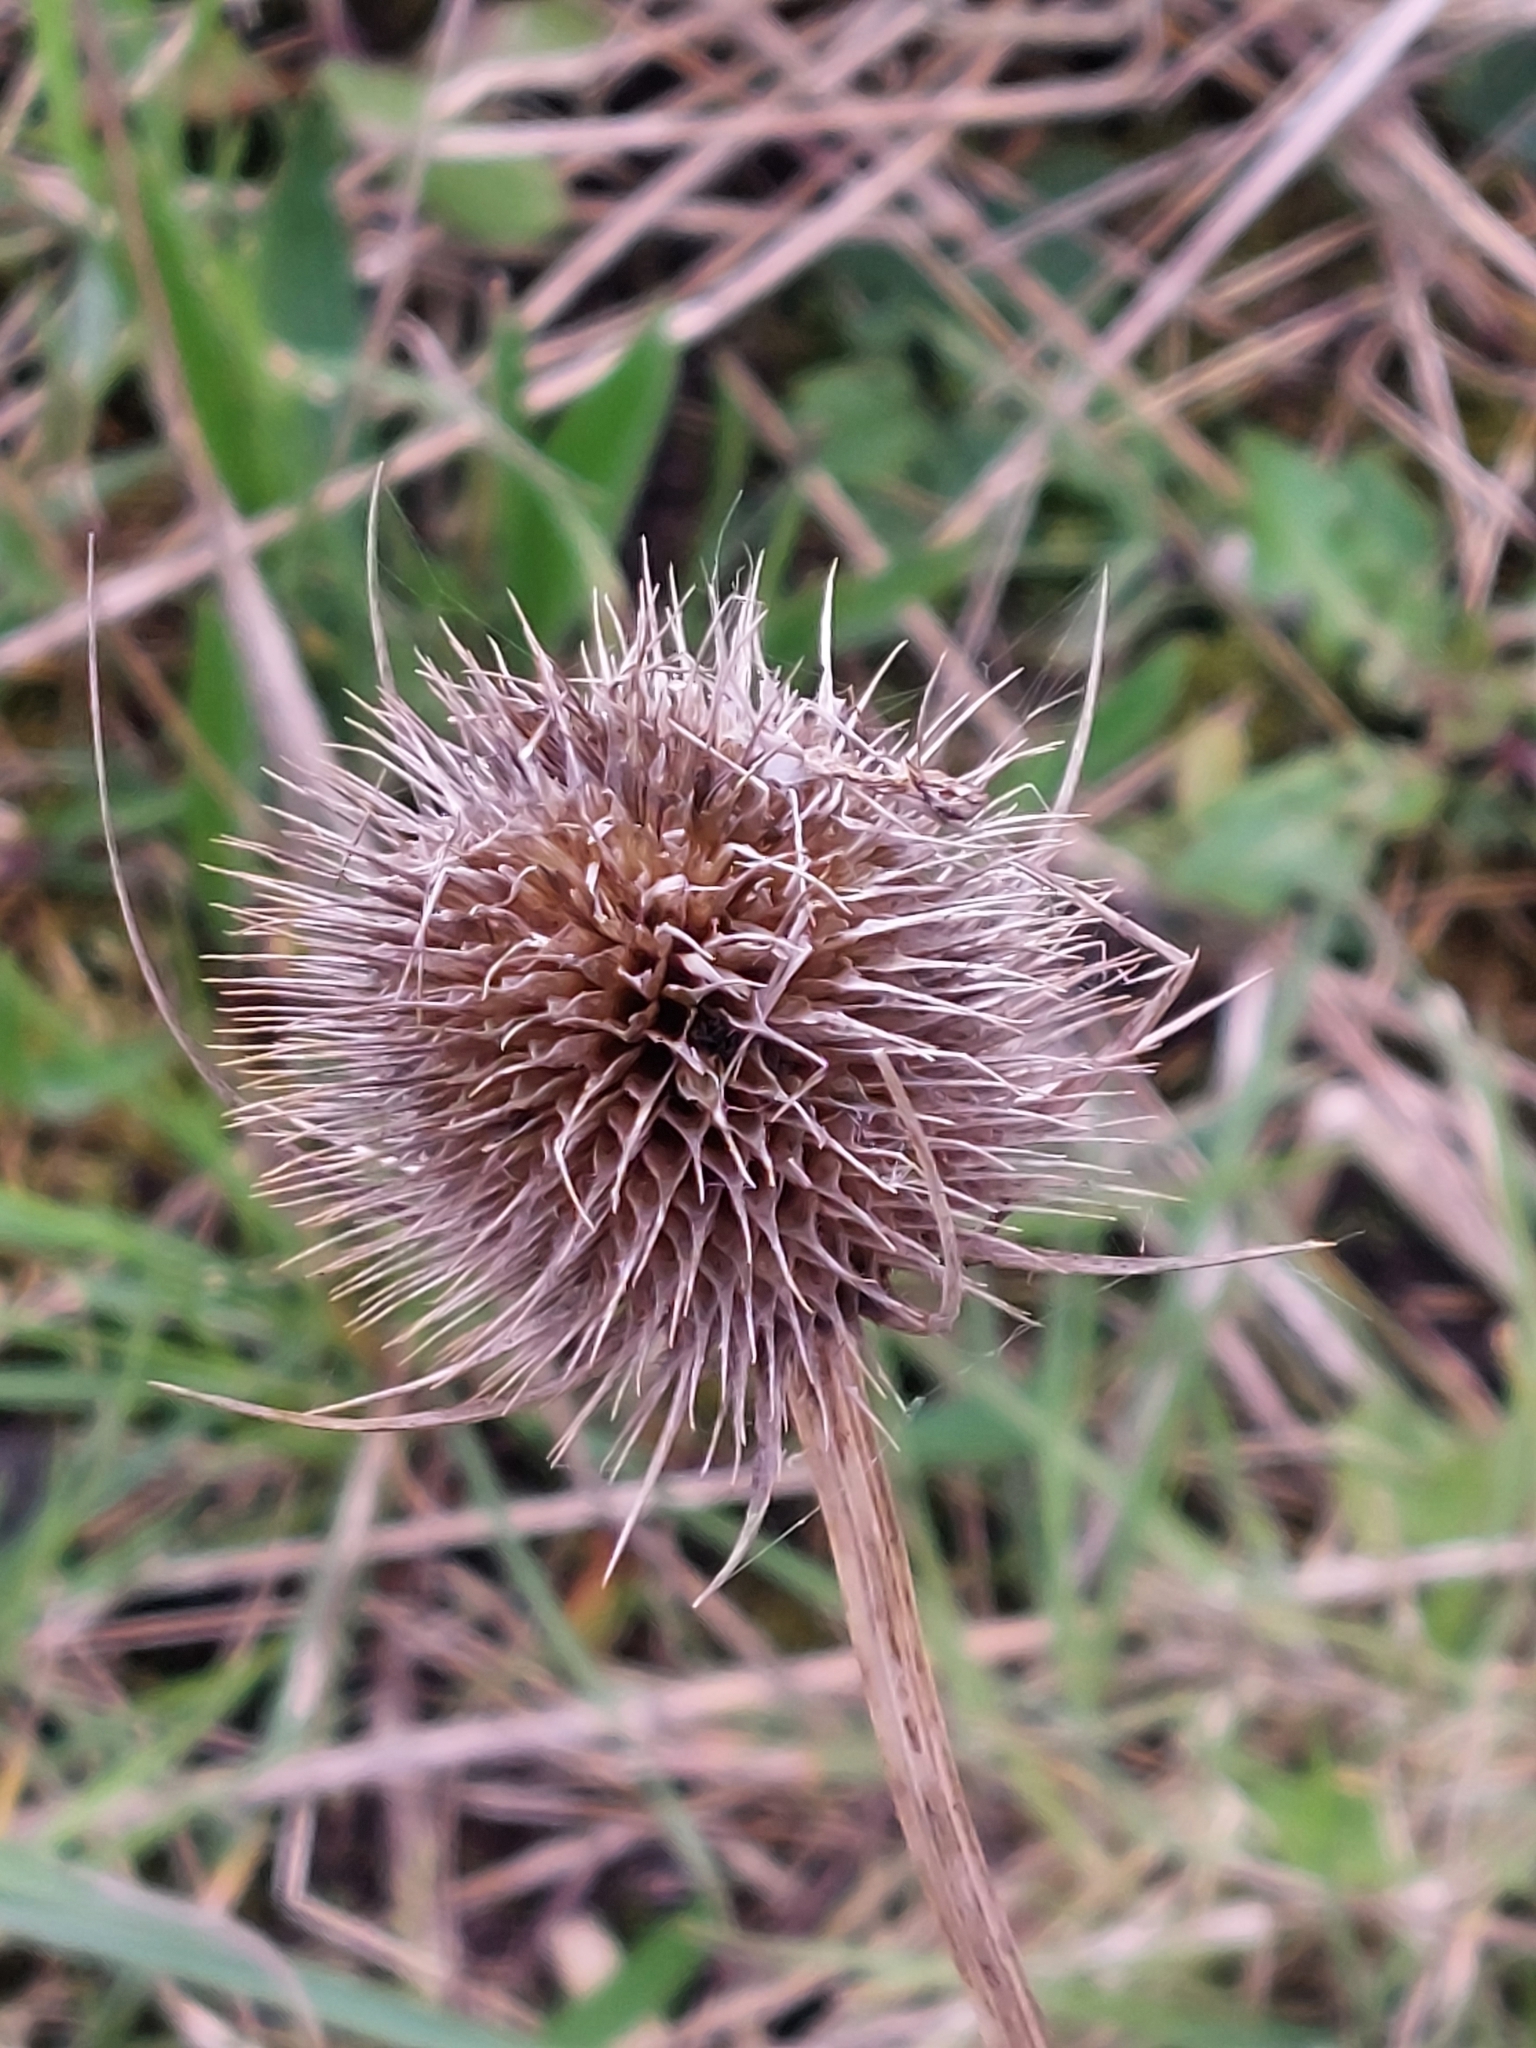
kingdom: Plantae
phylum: Tracheophyta
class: Magnoliopsida
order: Dipsacales
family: Caprifoliaceae
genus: Dipsacus
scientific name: Dipsacus fullonum
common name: Teasel
